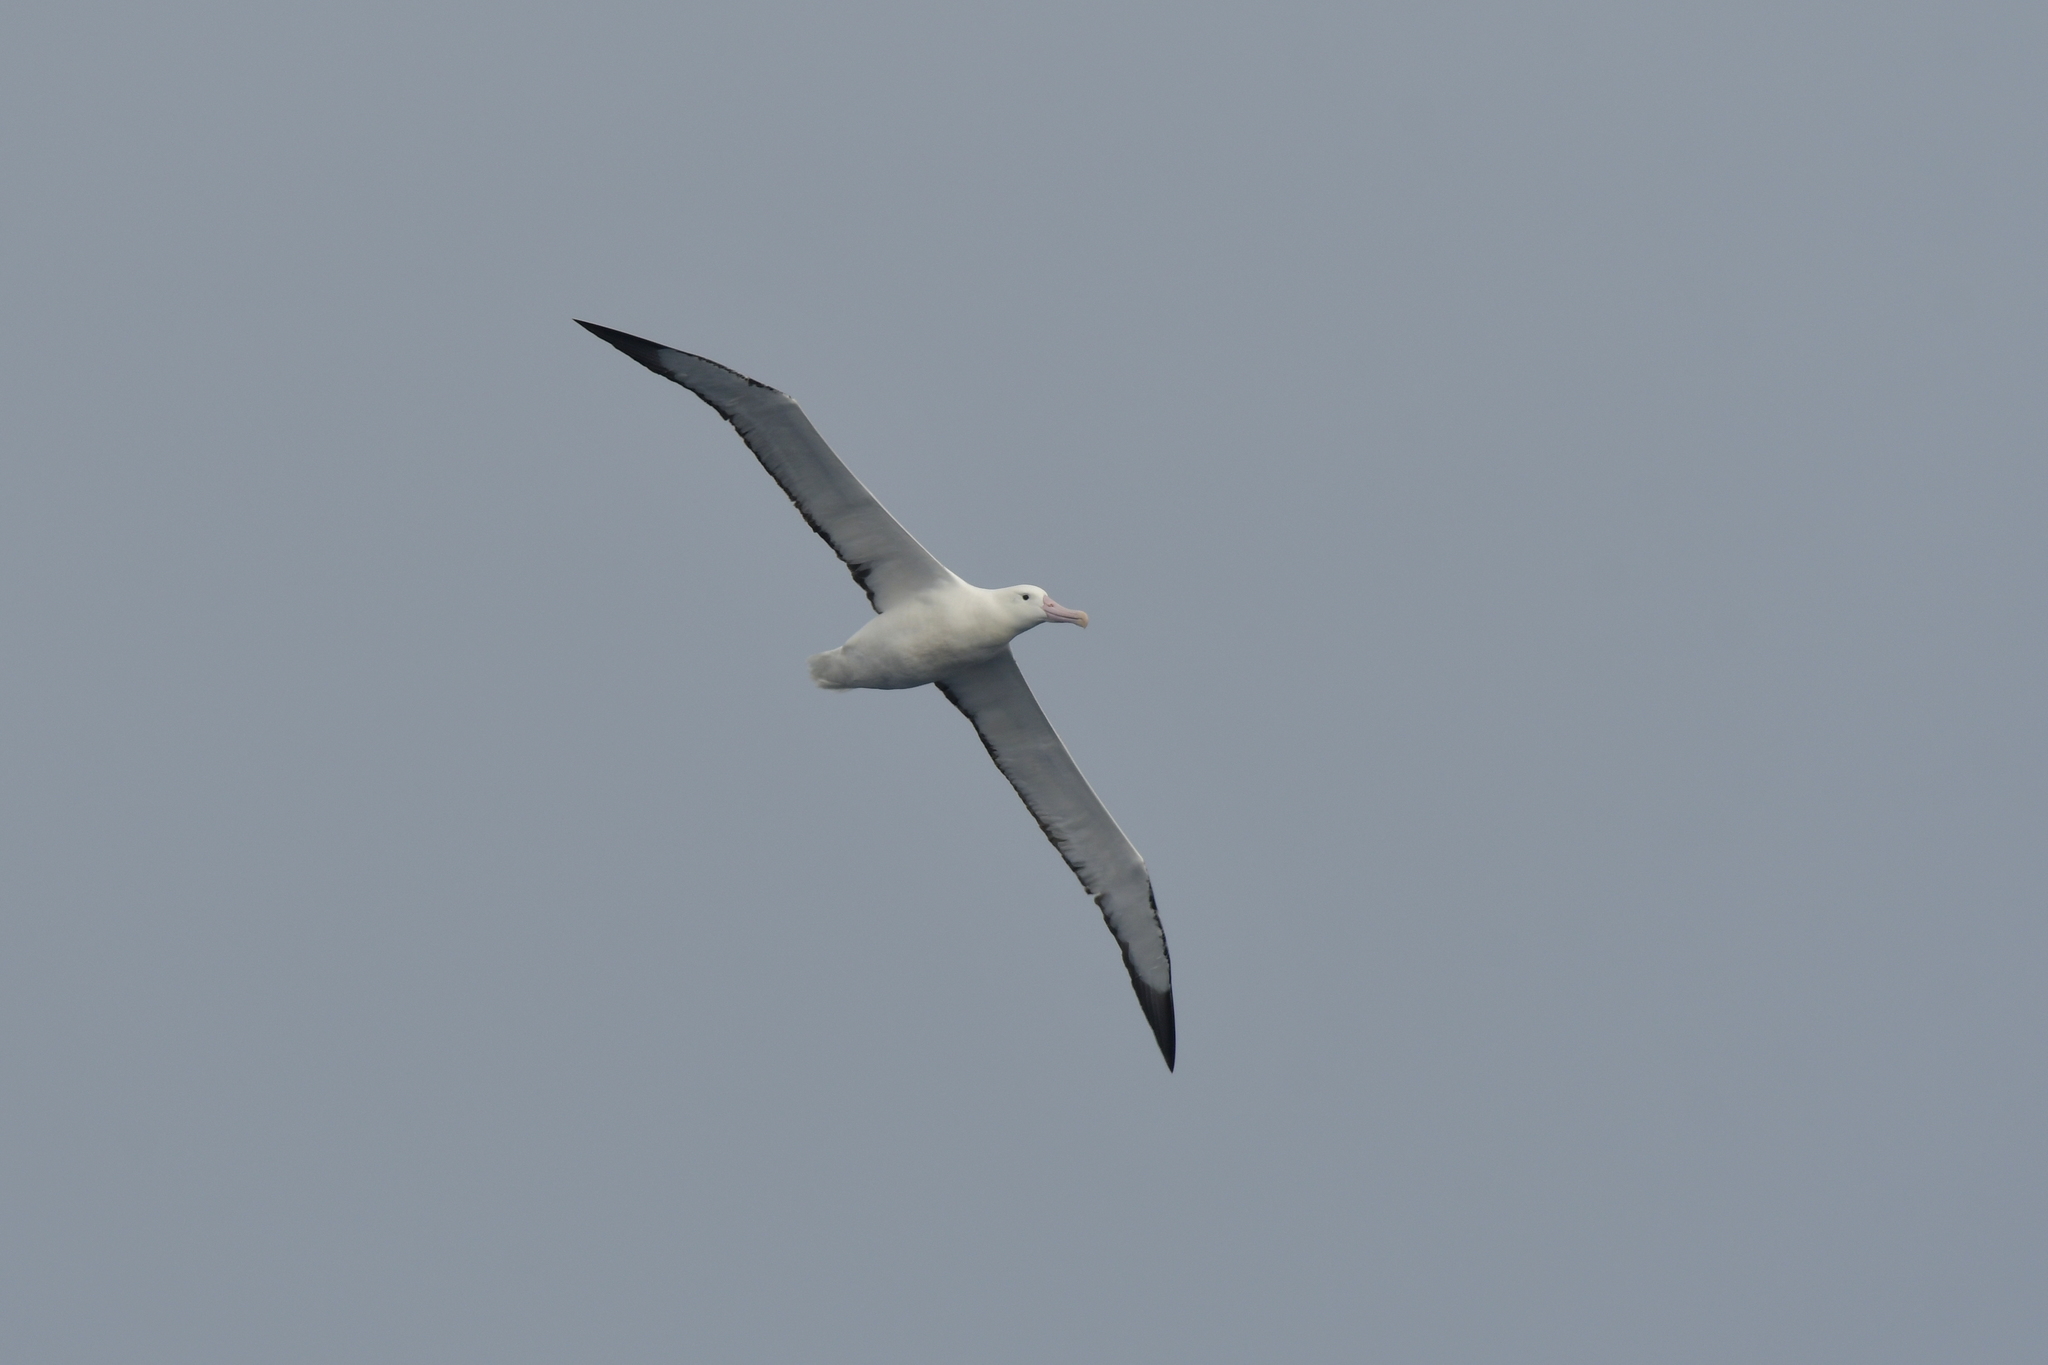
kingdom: Animalia
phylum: Chordata
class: Aves
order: Procellariiformes
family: Diomedeidae
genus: Diomedea
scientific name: Diomedea epomophora
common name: Southern royal albatross
